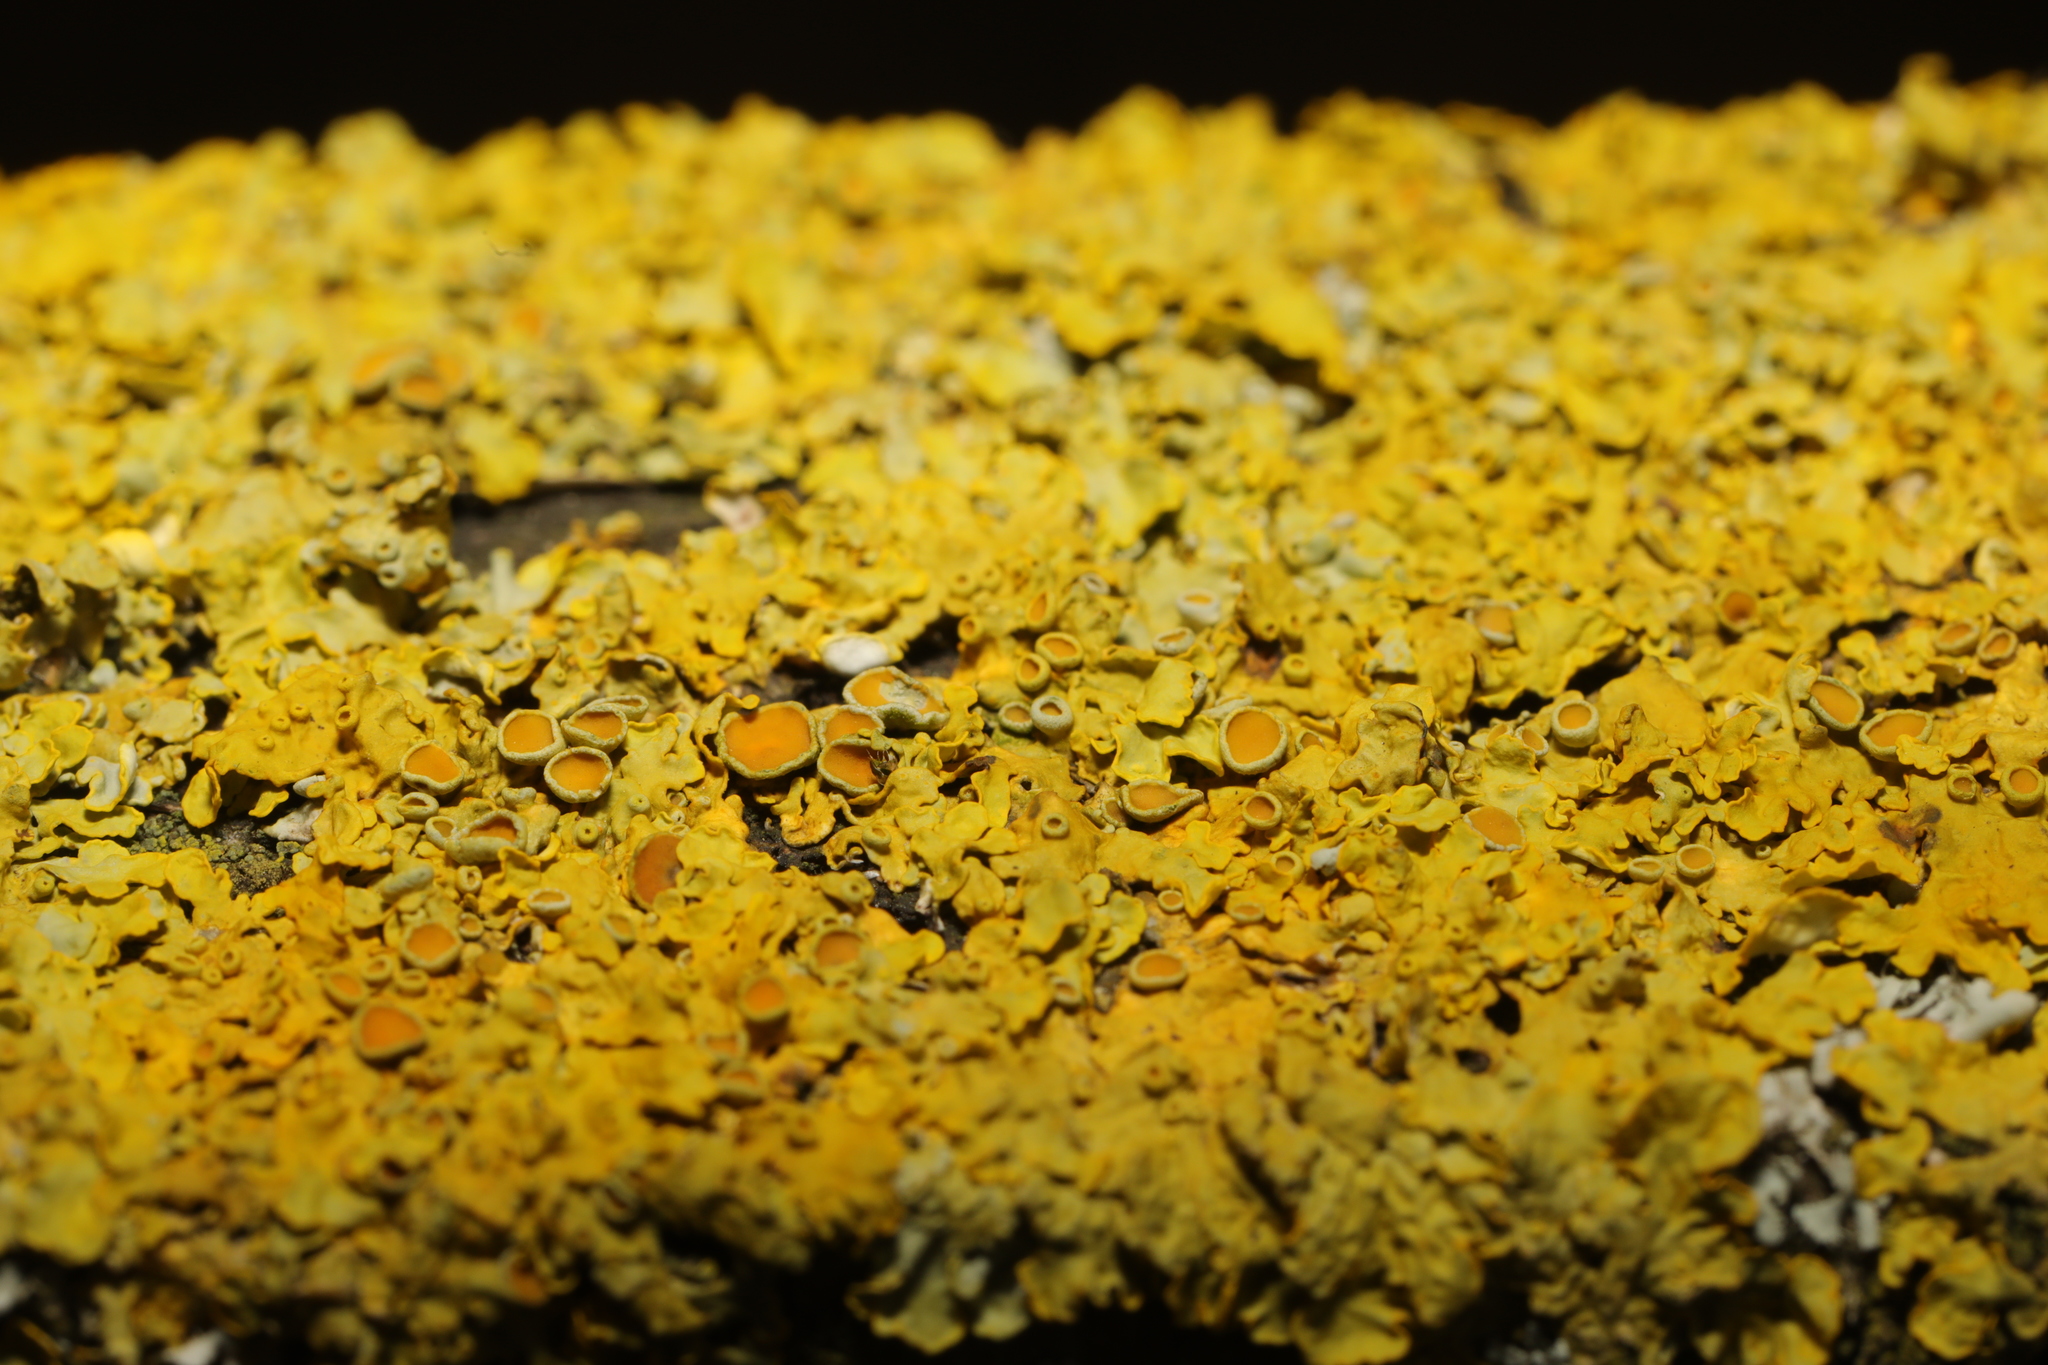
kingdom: Fungi
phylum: Ascomycota
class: Lecanoromycetes
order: Teloschistales
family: Teloschistaceae
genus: Xanthoria
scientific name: Xanthoria parietina
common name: Common orange lichen
